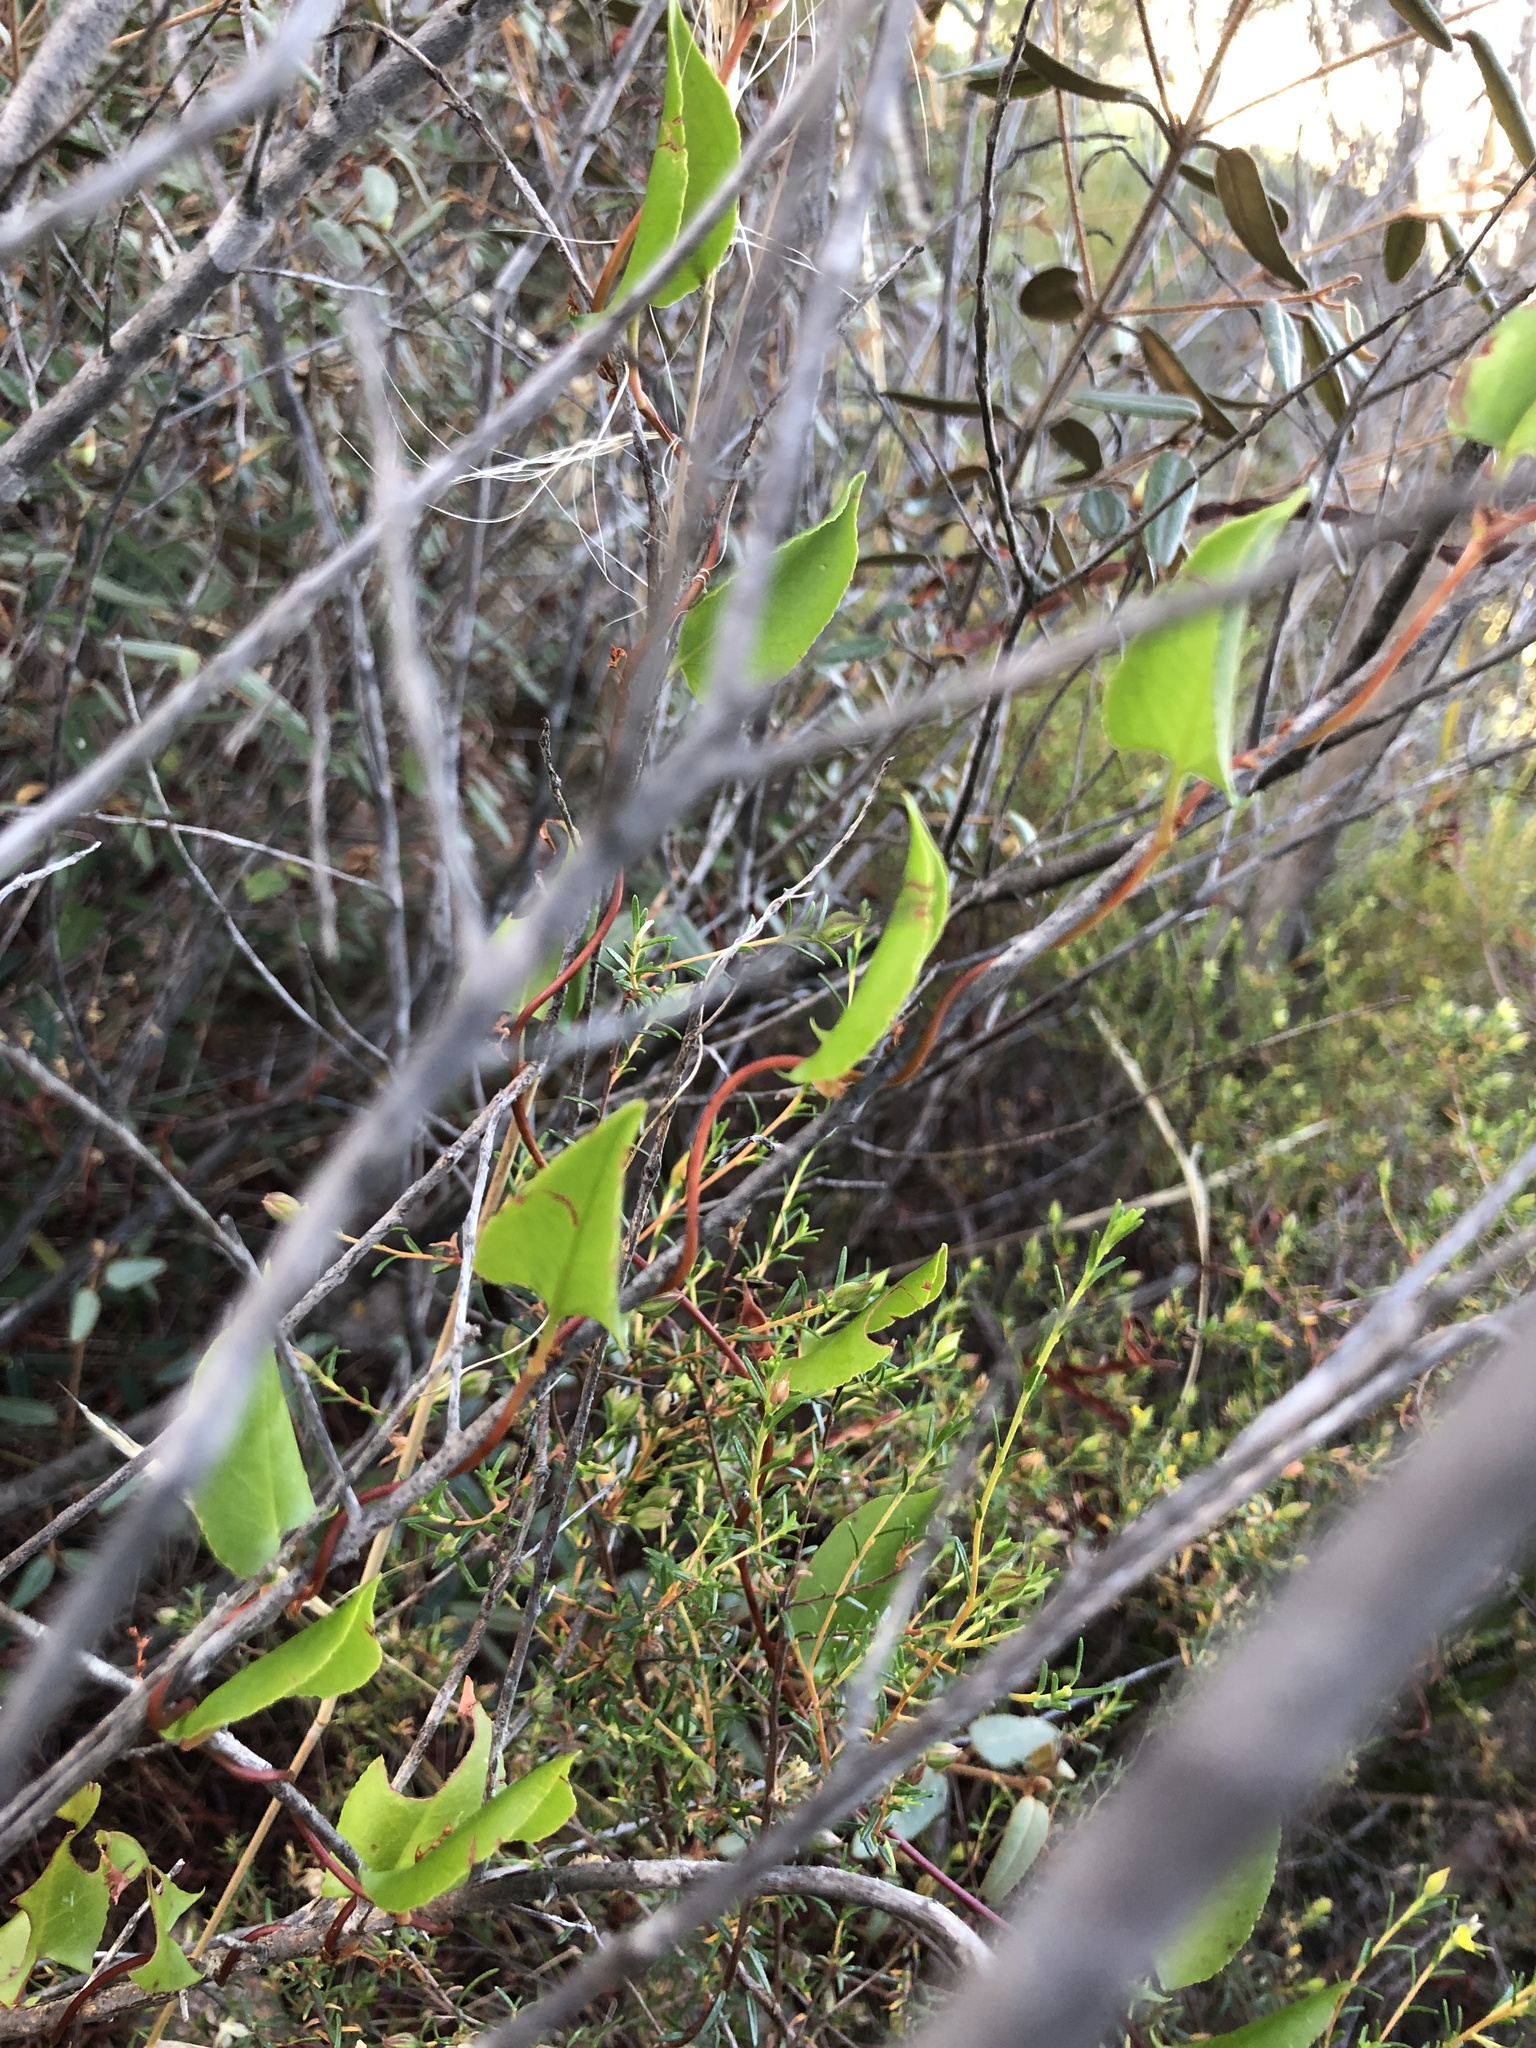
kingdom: Plantae
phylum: Tracheophyta
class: Magnoliopsida
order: Caryophyllales
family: Polygonaceae
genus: Muehlenbeckia
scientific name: Muehlenbeckia adpressa
